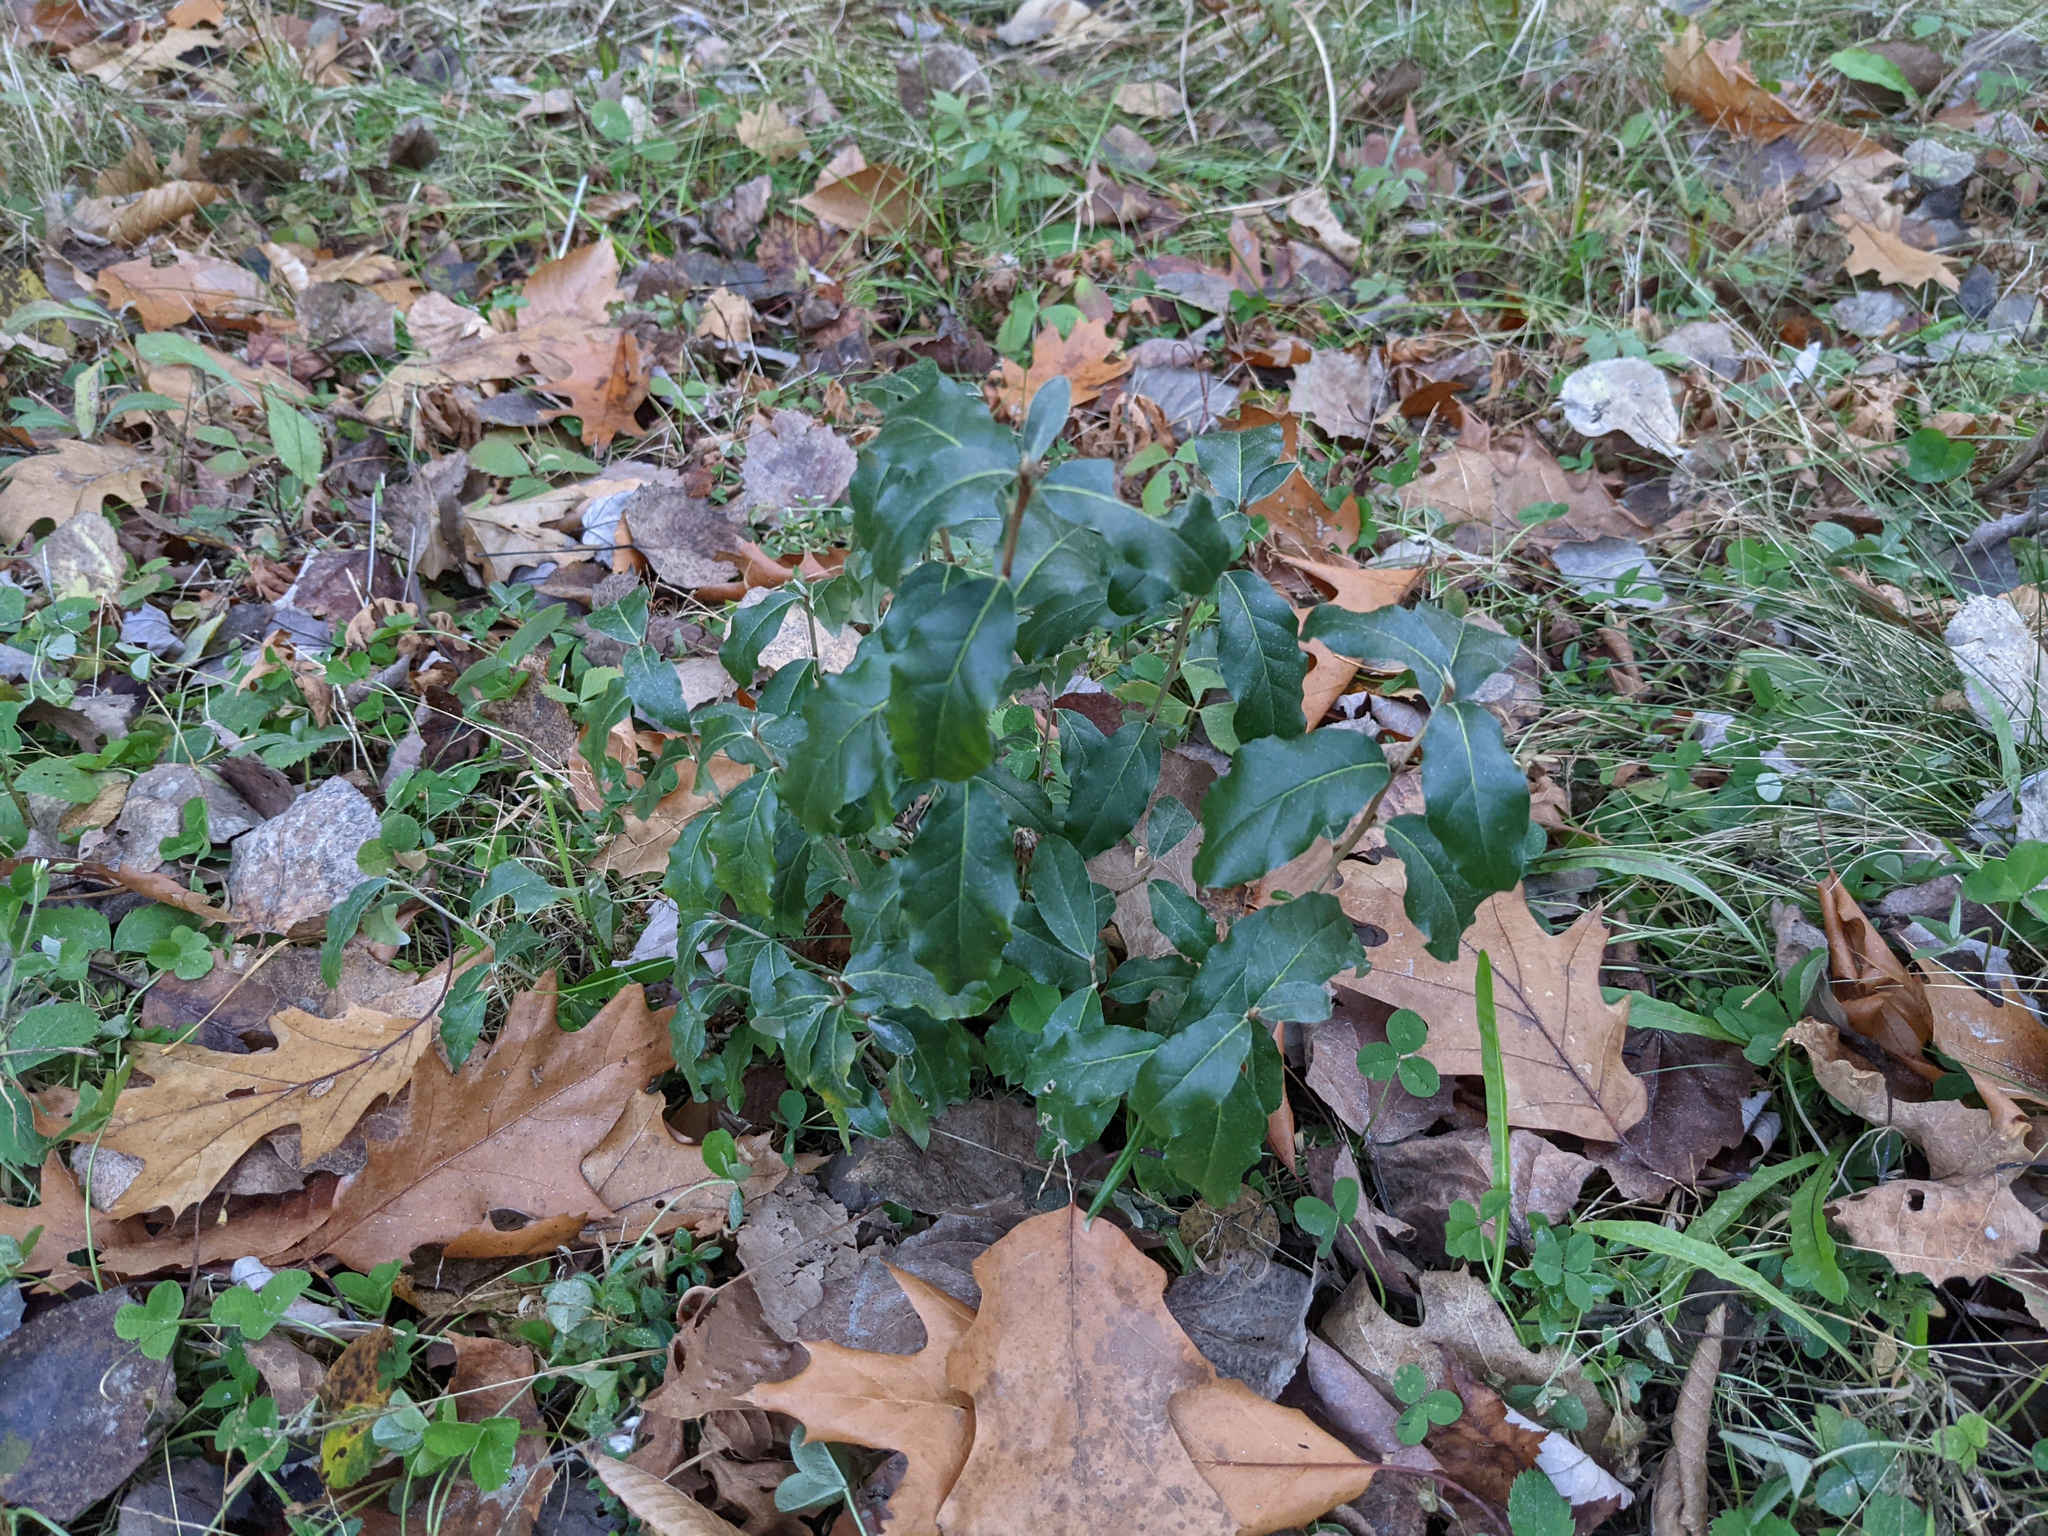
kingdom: Plantae
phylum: Tracheophyta
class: Magnoliopsida
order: Rosales
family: Elaeagnaceae
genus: Elaeagnus
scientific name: Elaeagnus umbellata
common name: Autumn olive
